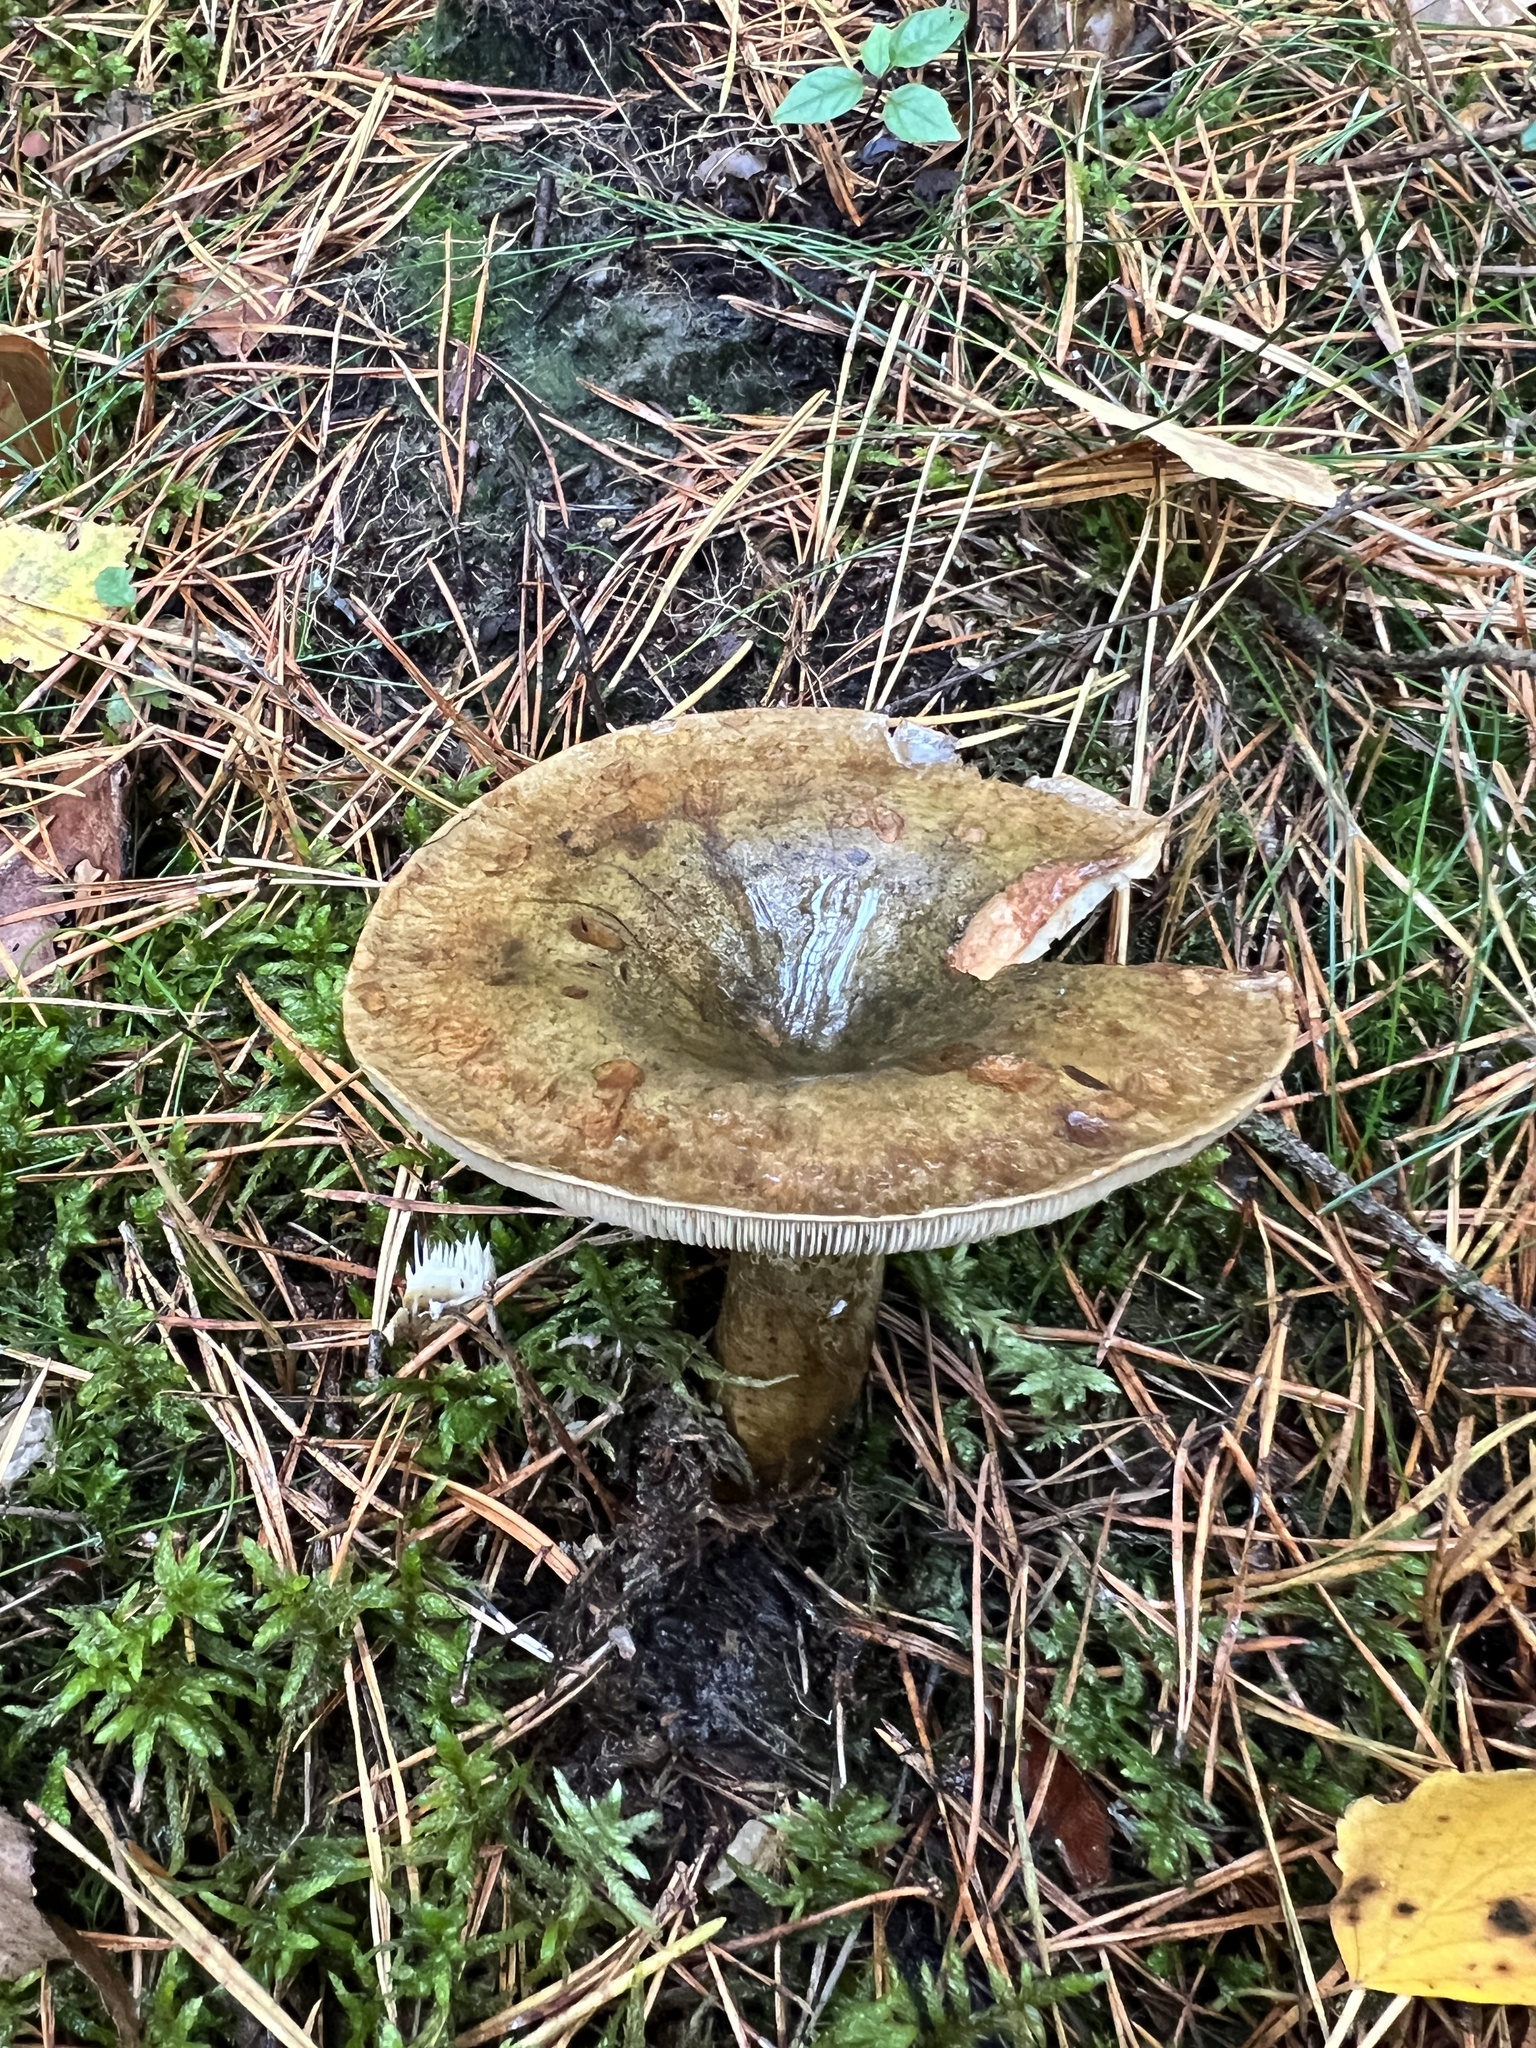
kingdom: Fungi
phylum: Basidiomycota
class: Agaricomycetes
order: Russulales
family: Russulaceae
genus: Lactarius
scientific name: Lactarius turpis
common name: Ugly milk-cap
